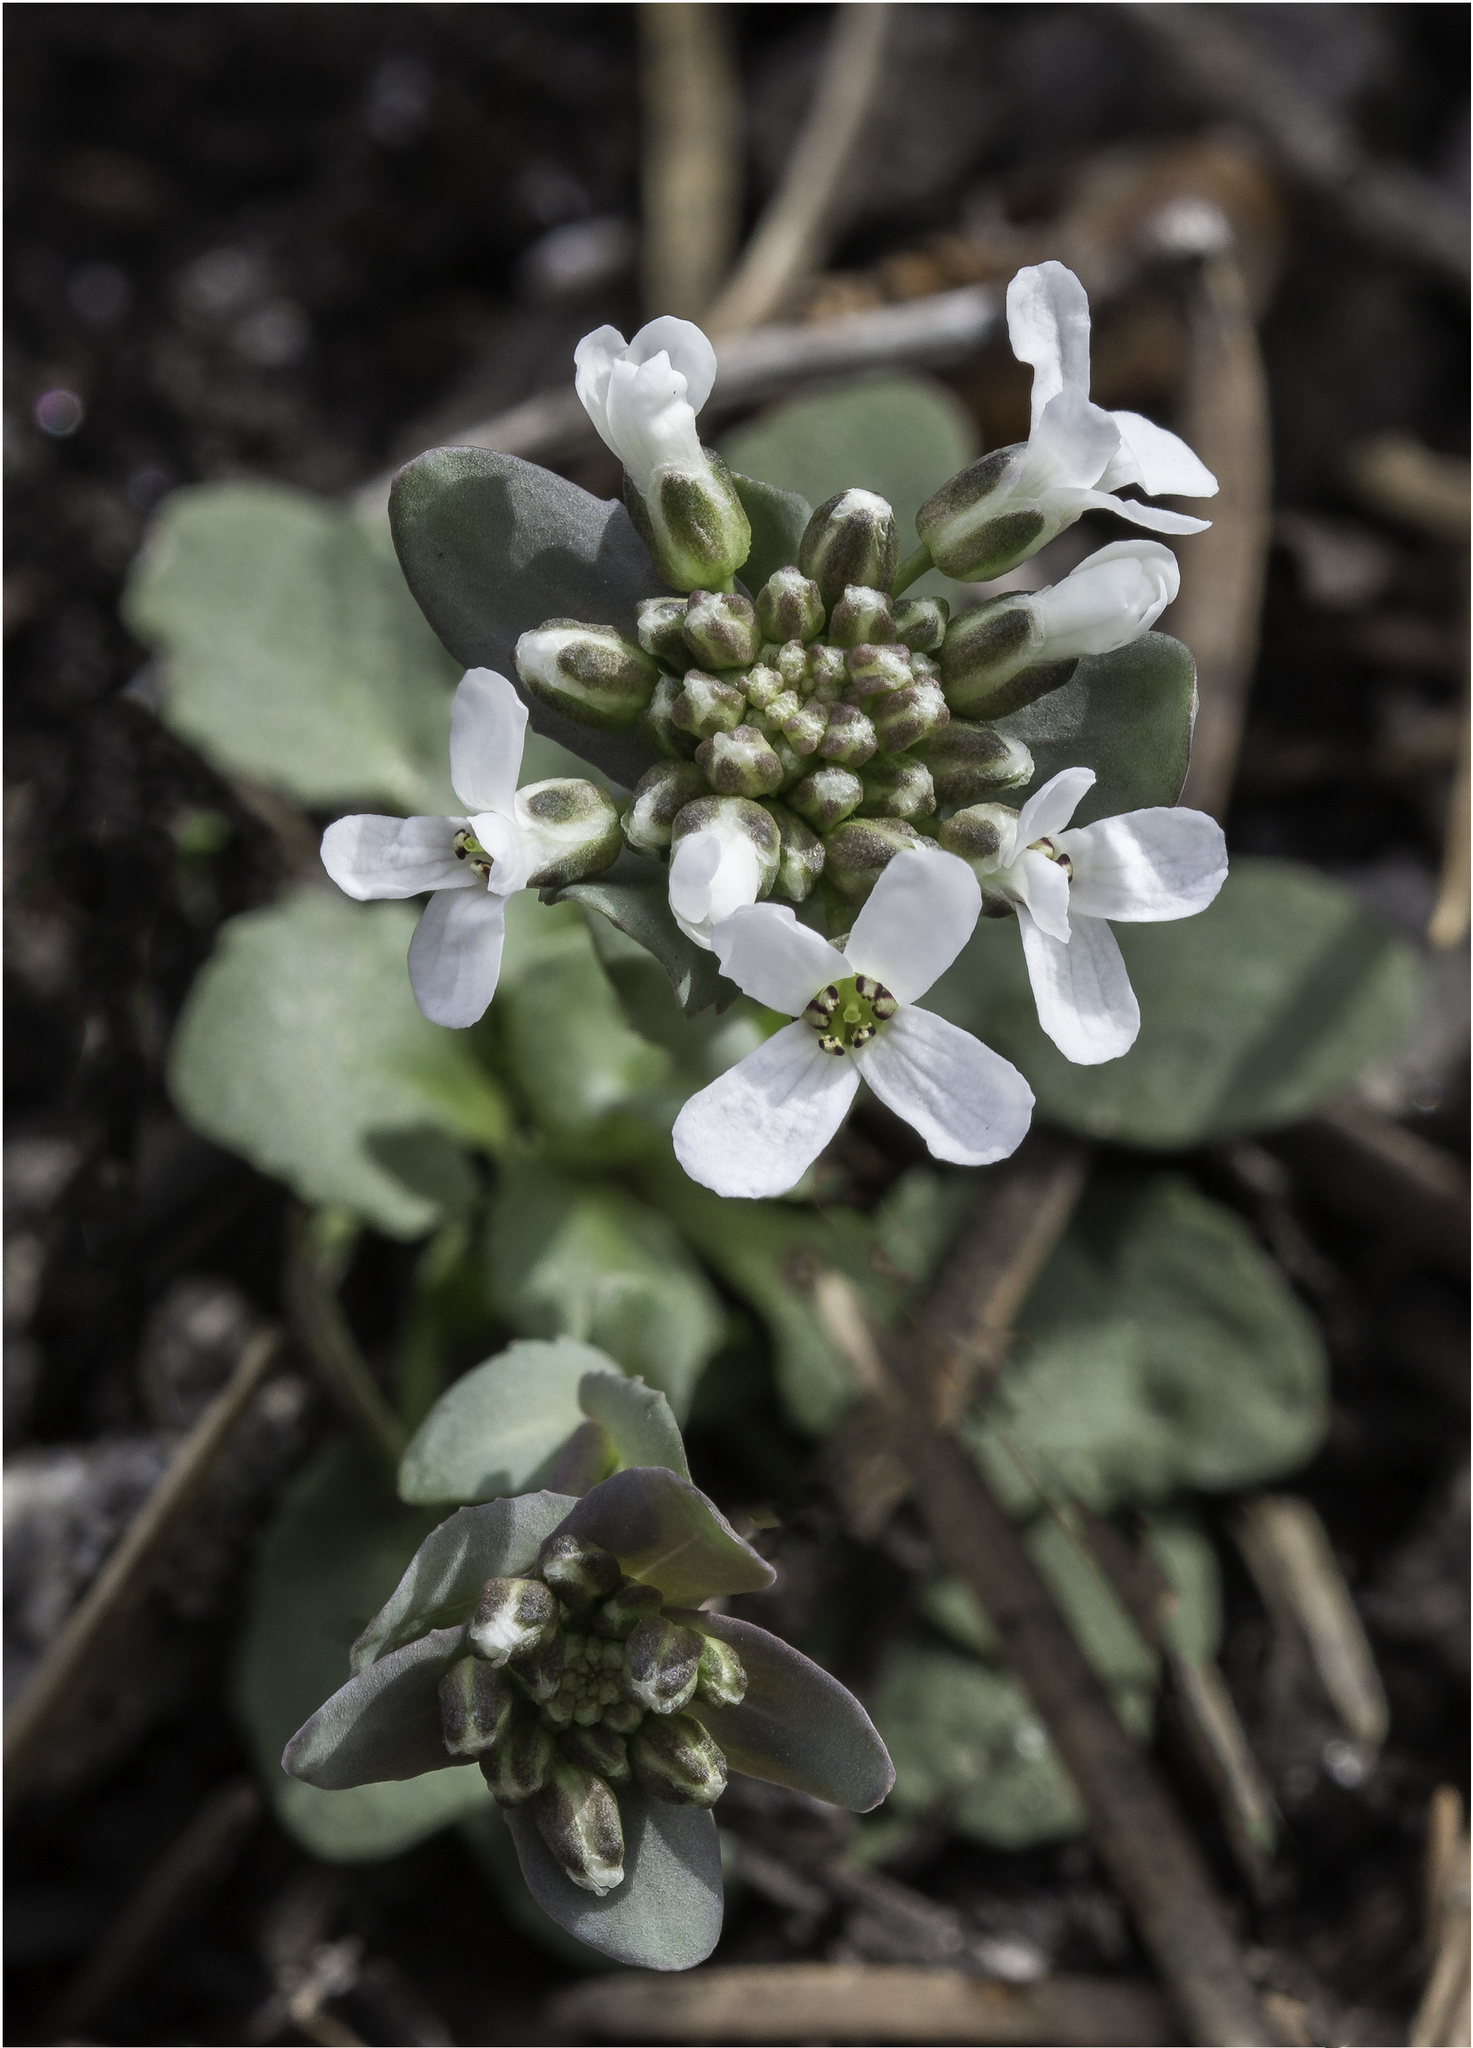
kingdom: Plantae
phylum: Tracheophyta
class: Magnoliopsida
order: Brassicales
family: Brassicaceae
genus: Noccaea
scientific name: Noccaea fendleri
